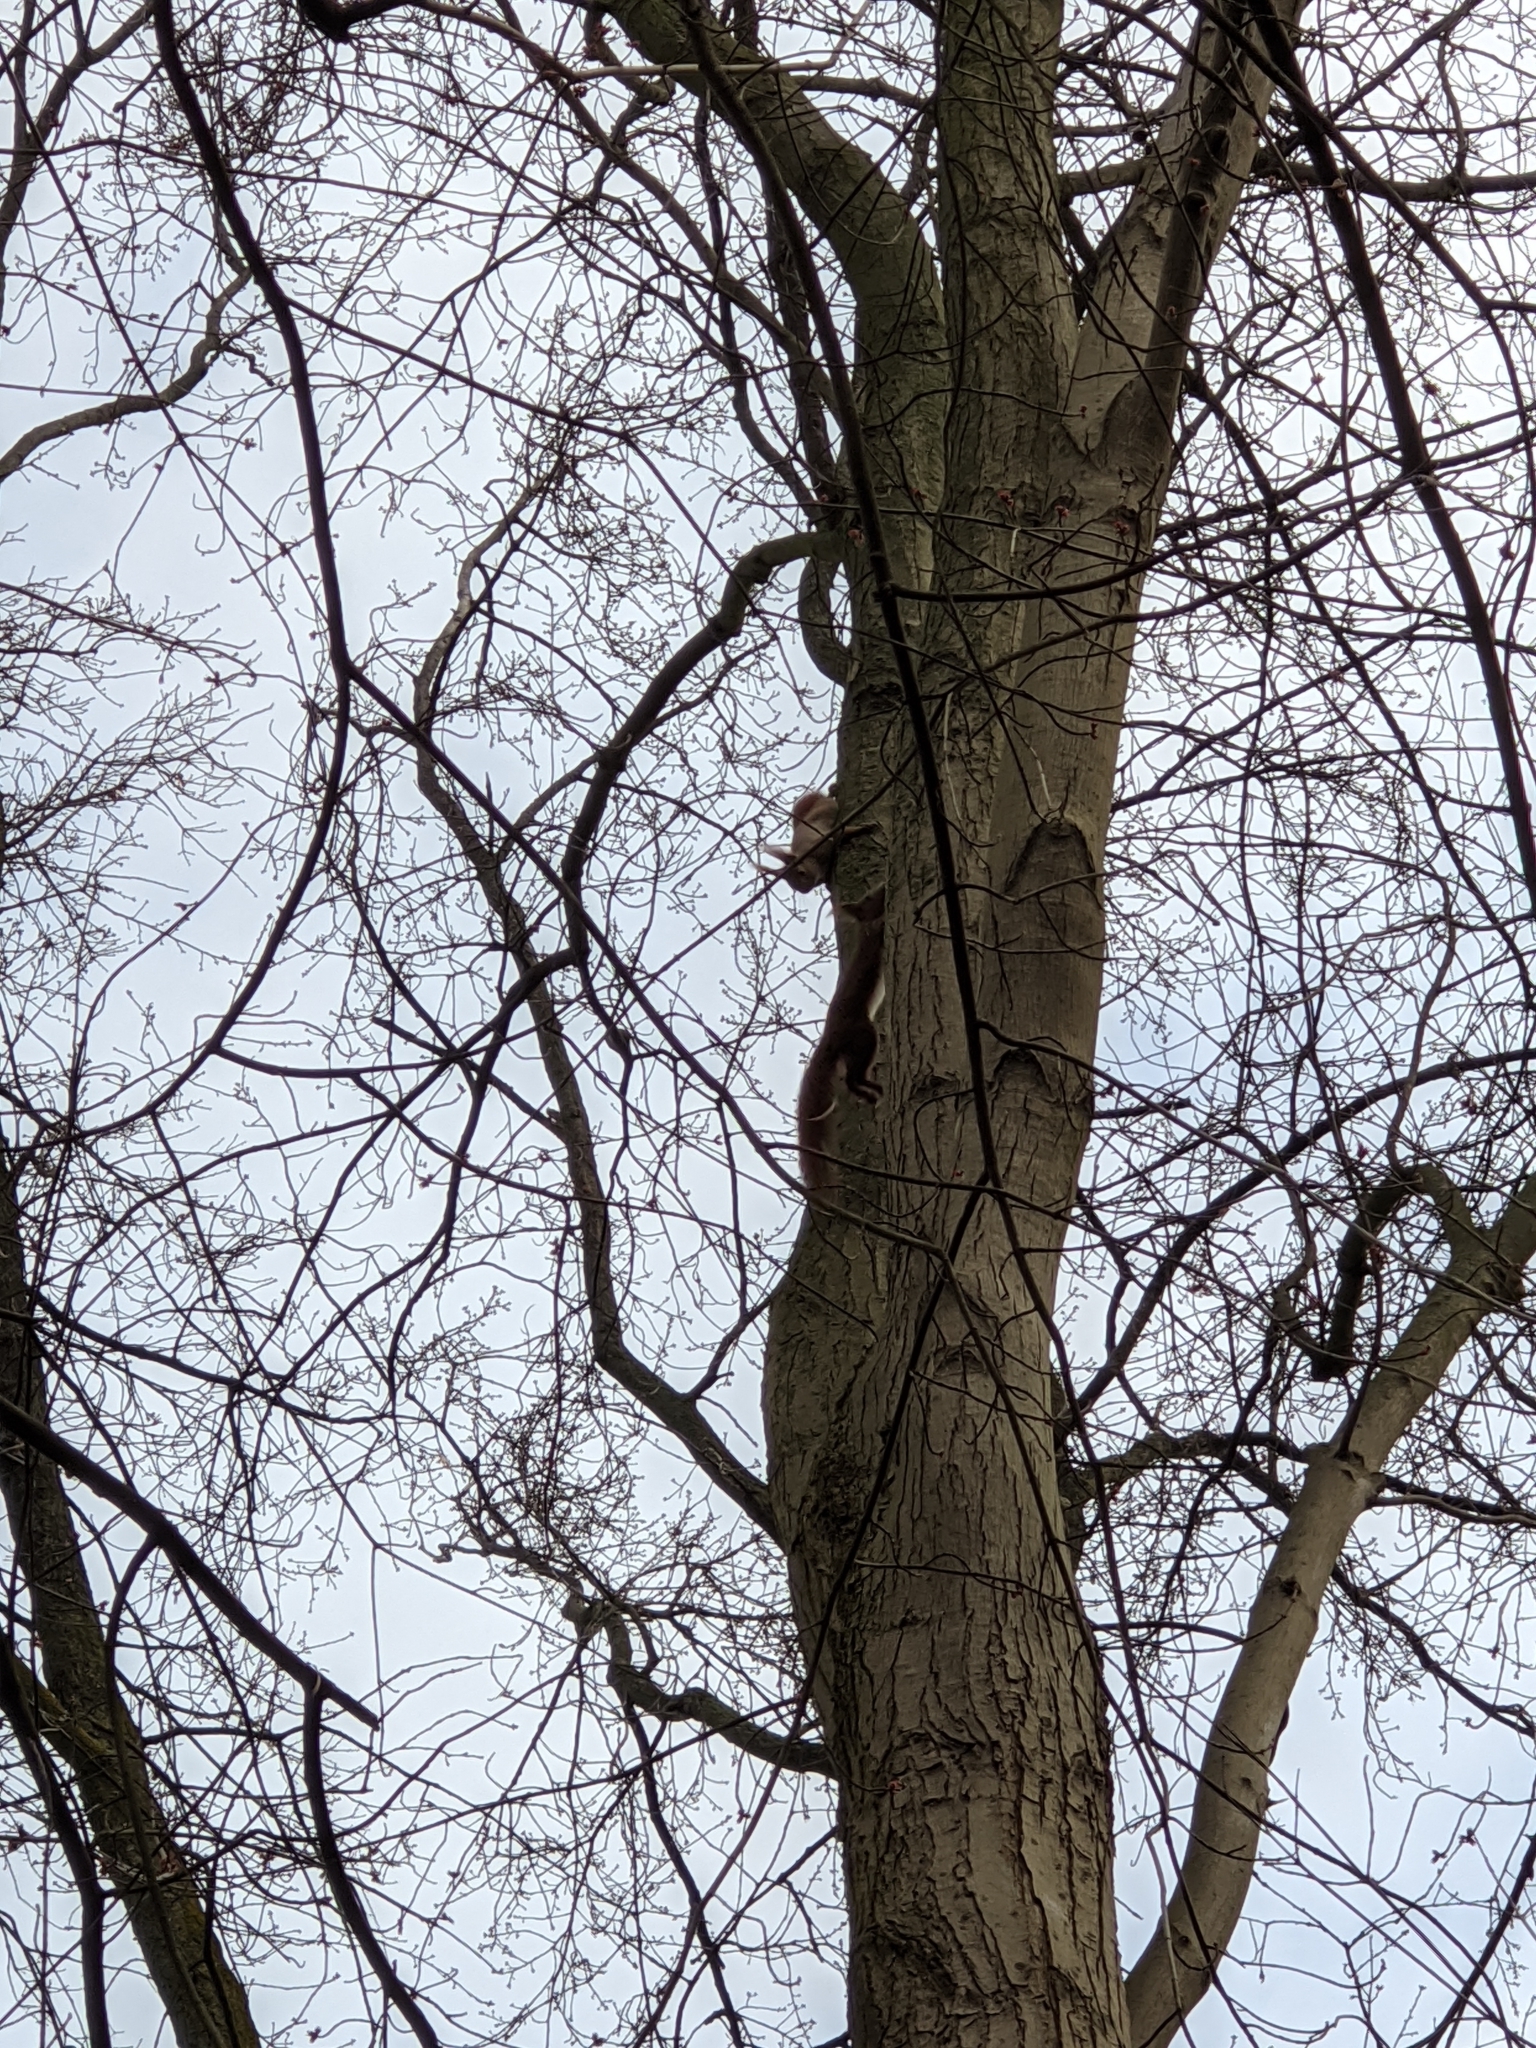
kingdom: Animalia
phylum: Chordata
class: Mammalia
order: Rodentia
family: Sciuridae
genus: Sciurus
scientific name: Sciurus vulgaris
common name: Eurasian red squirrel
